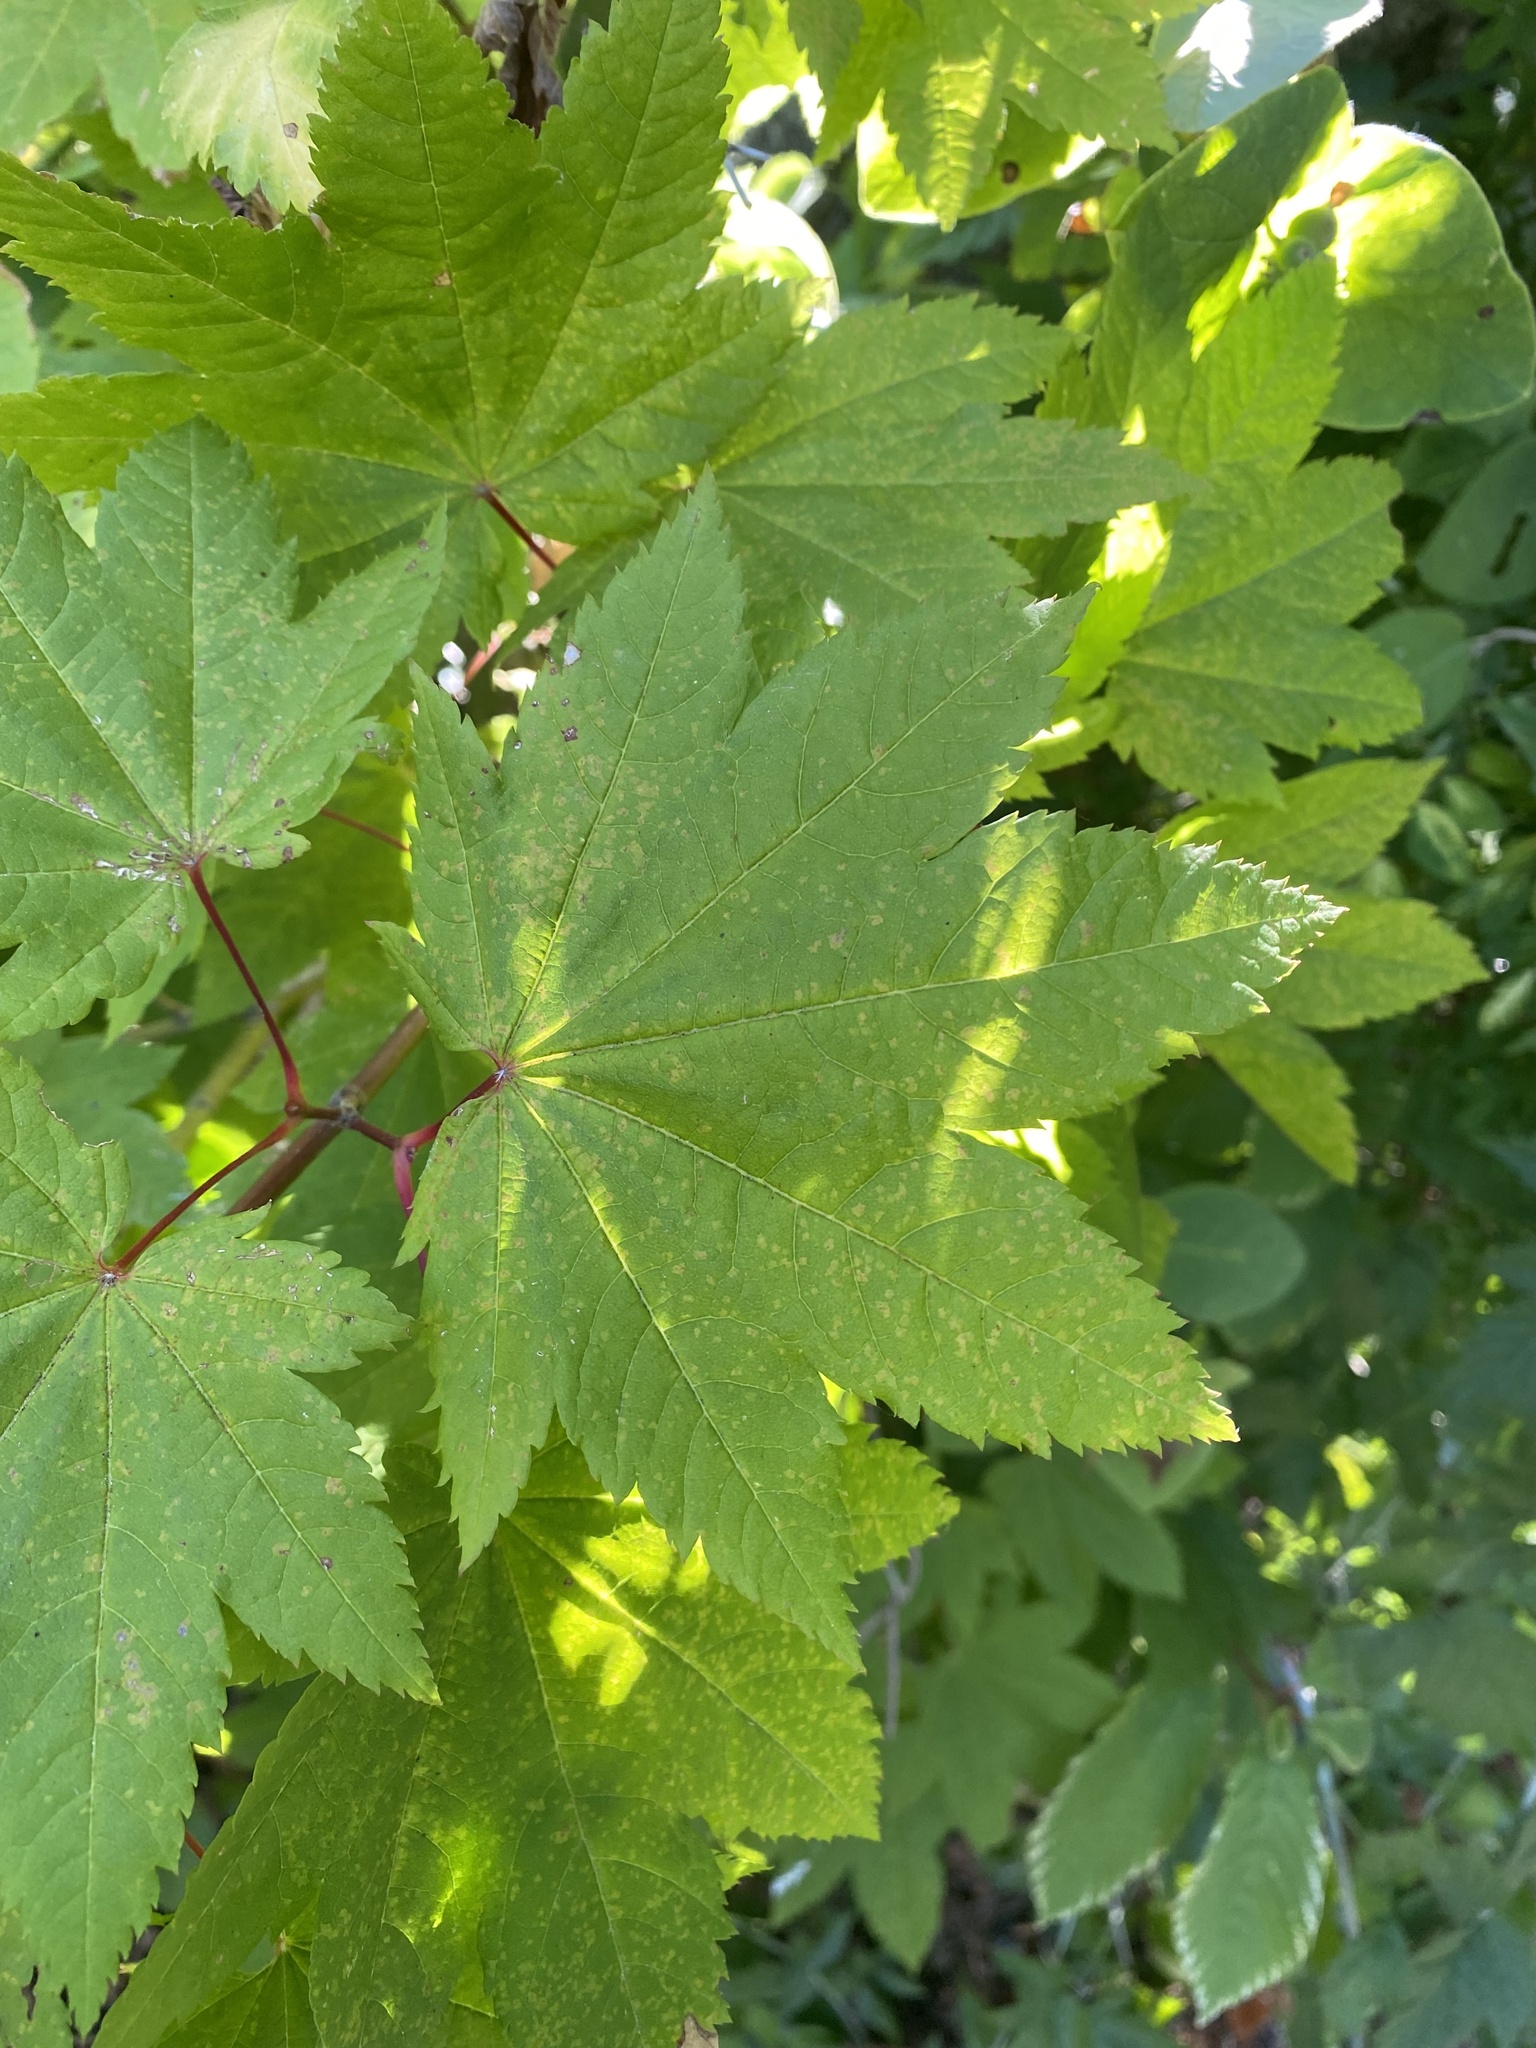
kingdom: Plantae
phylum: Tracheophyta
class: Magnoliopsida
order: Sapindales
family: Sapindaceae
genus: Acer
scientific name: Acer circinatum
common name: Vine maple
